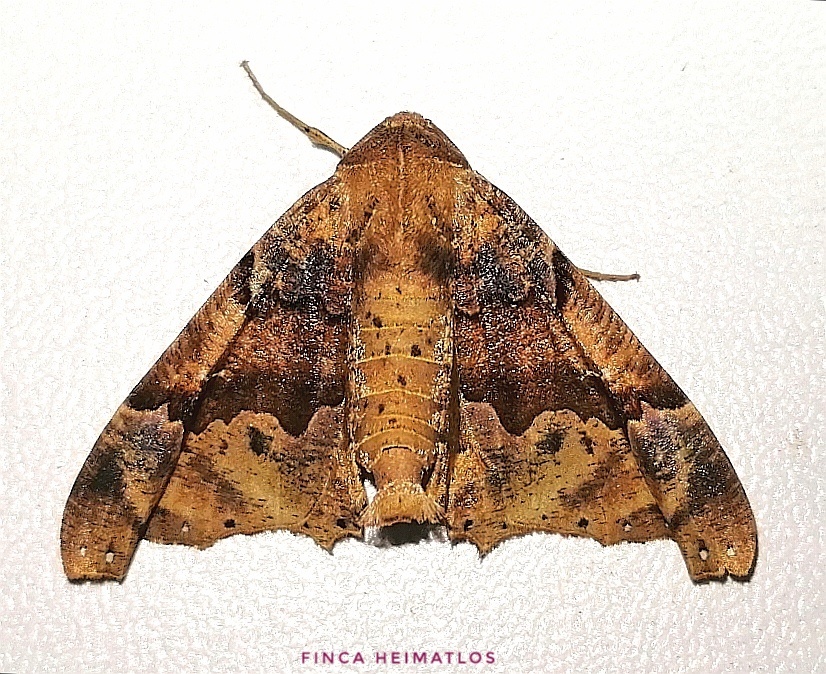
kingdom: Animalia
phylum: Arthropoda
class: Insecta
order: Lepidoptera
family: Geometridae
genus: Pero
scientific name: Pero dularia
